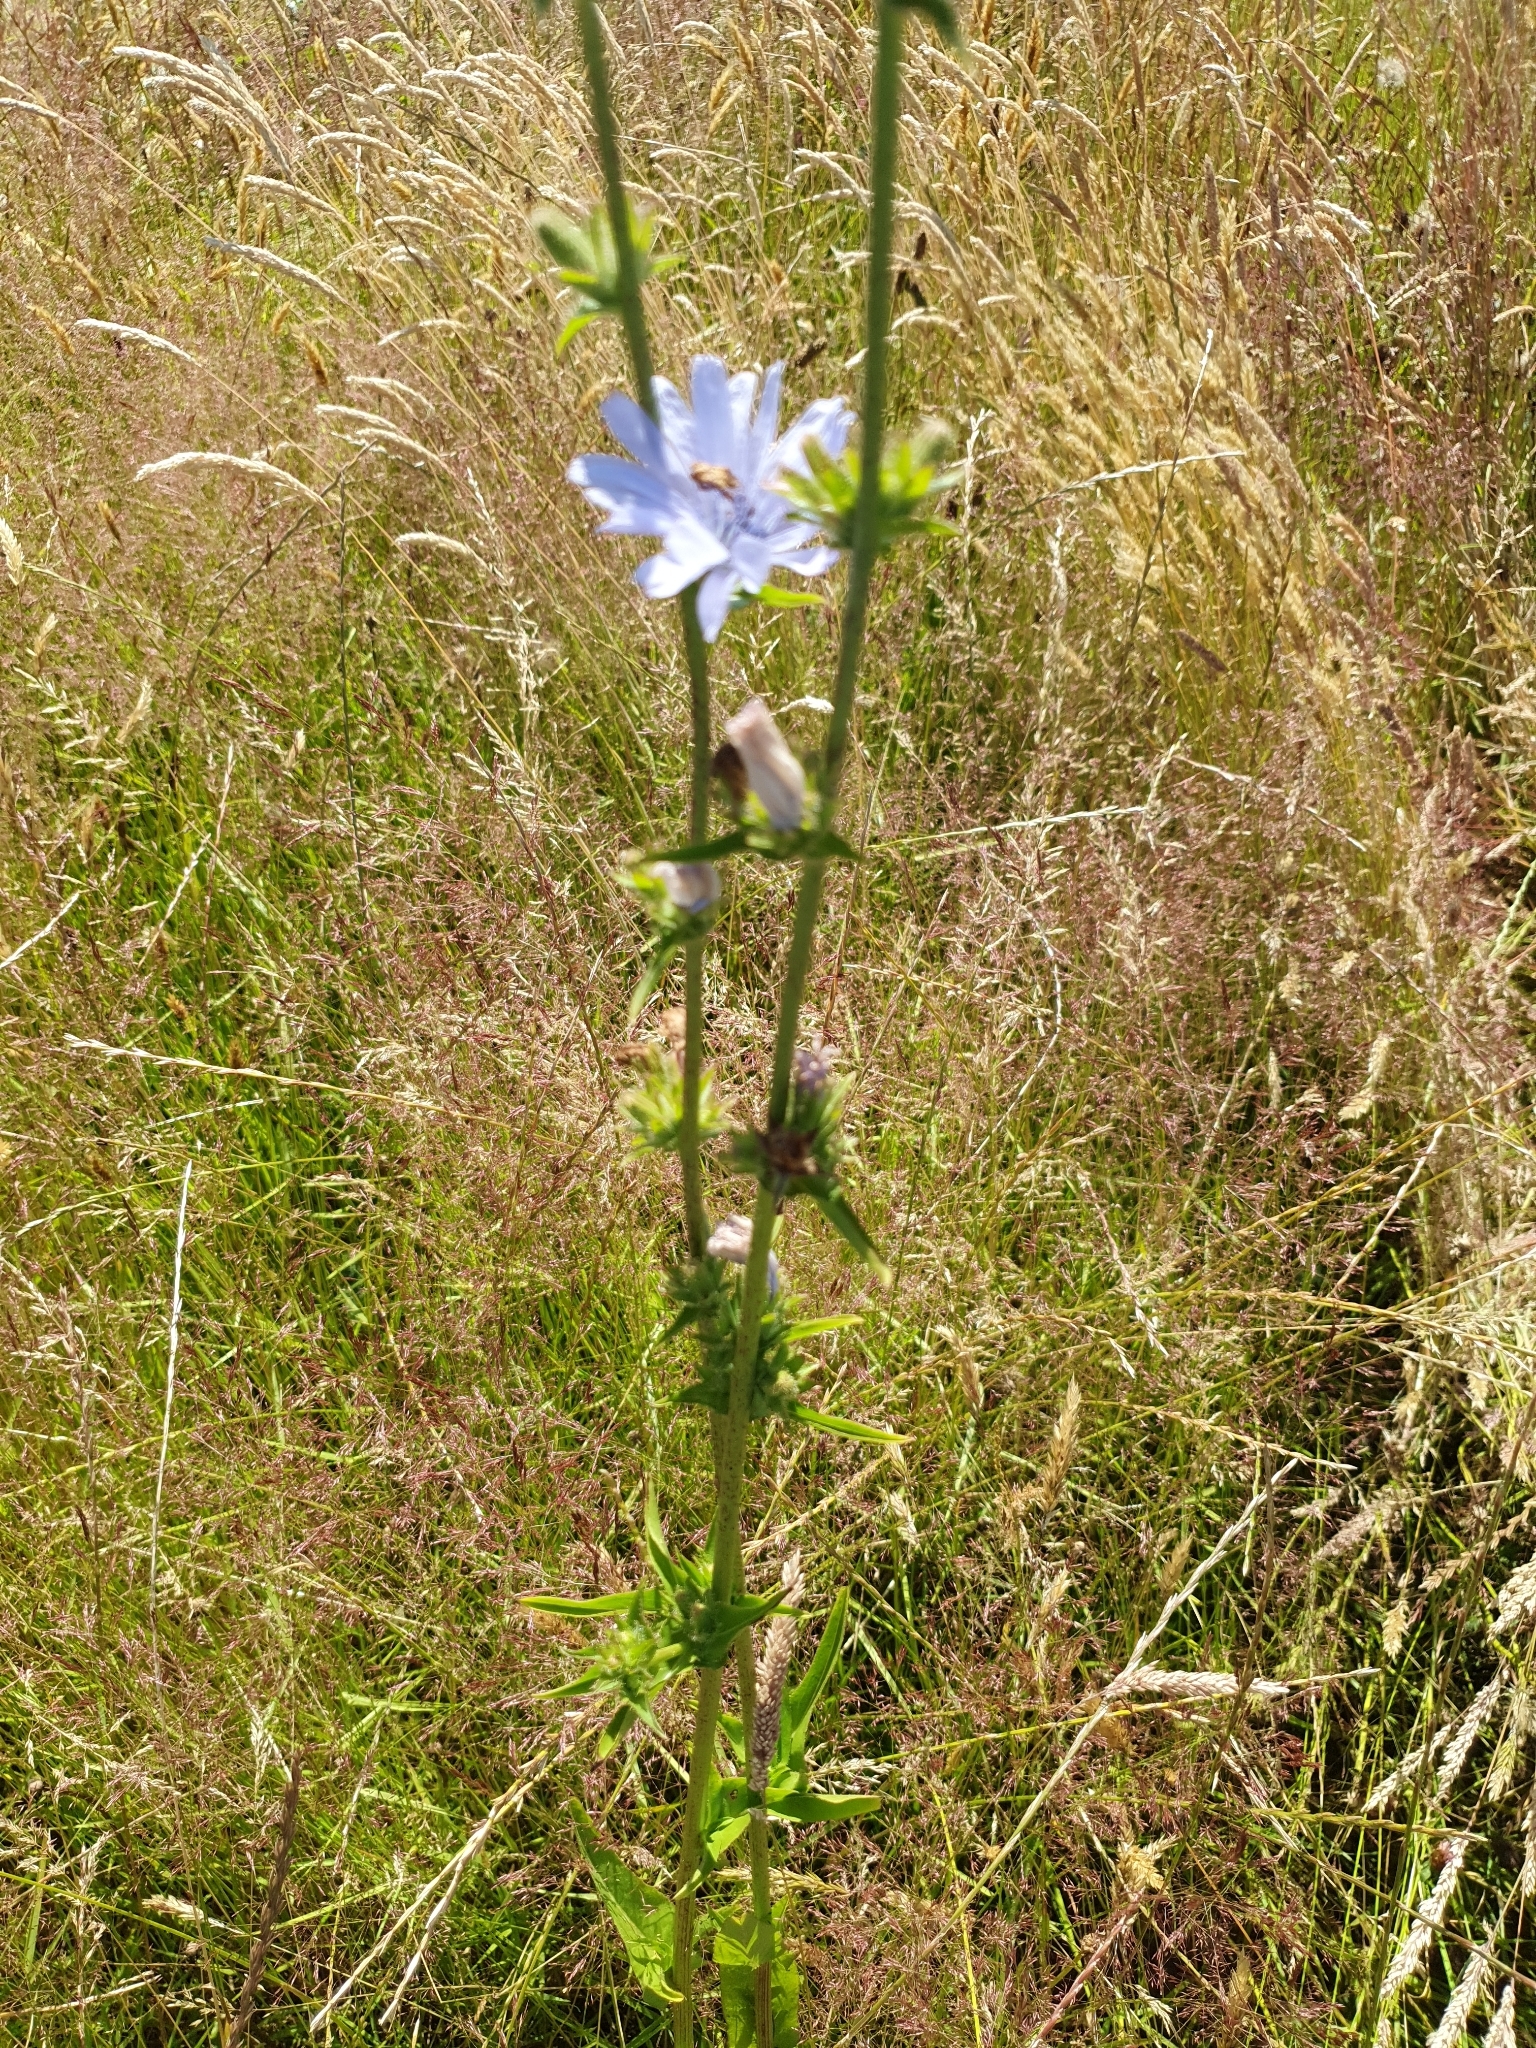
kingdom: Plantae
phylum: Tracheophyta
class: Magnoliopsida
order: Asterales
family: Asteraceae
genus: Cichorium
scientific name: Cichorium intybus
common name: Chicory
